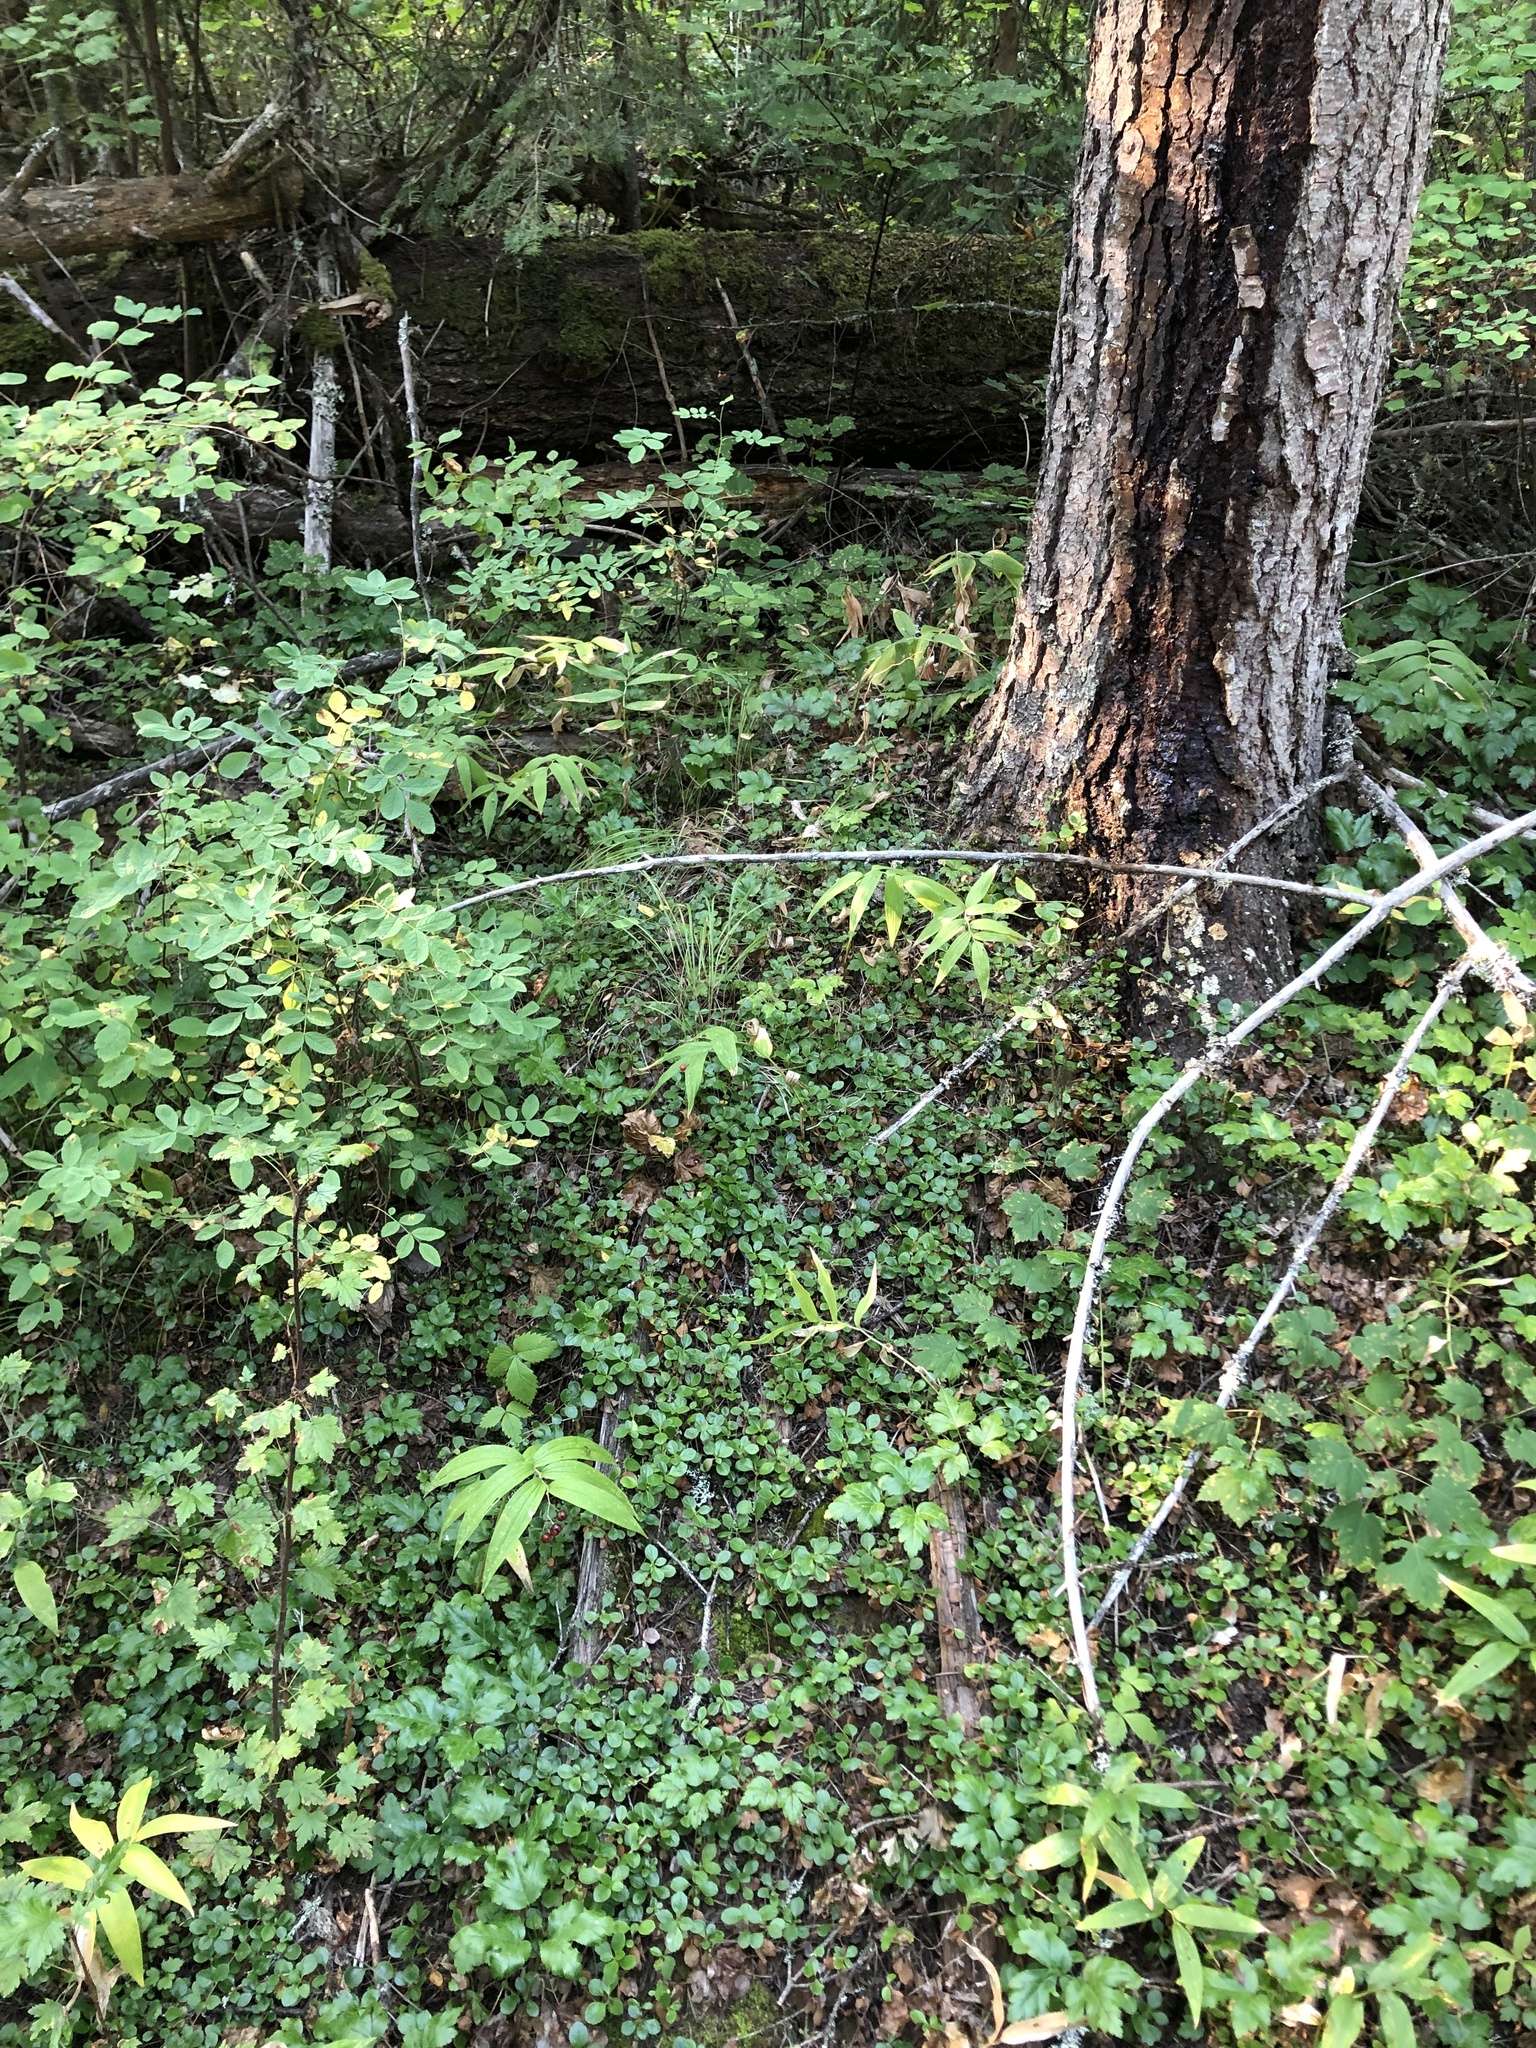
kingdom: Plantae
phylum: Tracheophyta
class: Liliopsida
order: Asparagales
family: Asparagaceae
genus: Maianthemum
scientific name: Maianthemum stellatum
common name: Little false solomon's seal
